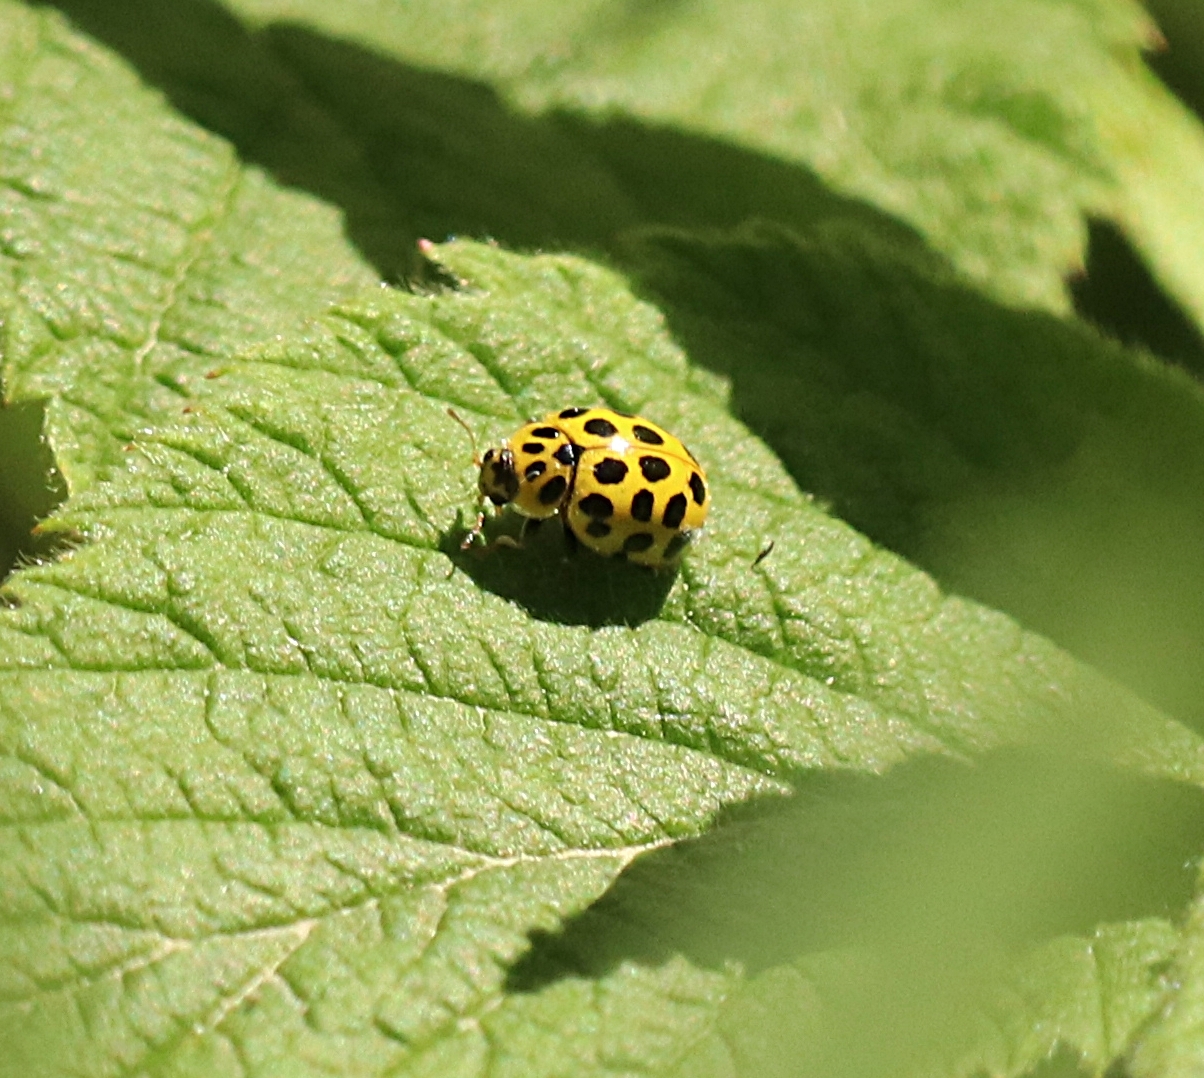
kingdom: Animalia
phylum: Arthropoda
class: Insecta
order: Coleoptera
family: Coccinellidae
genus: Psyllobora
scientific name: Psyllobora vigintiduopunctata
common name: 22-spot ladybird
